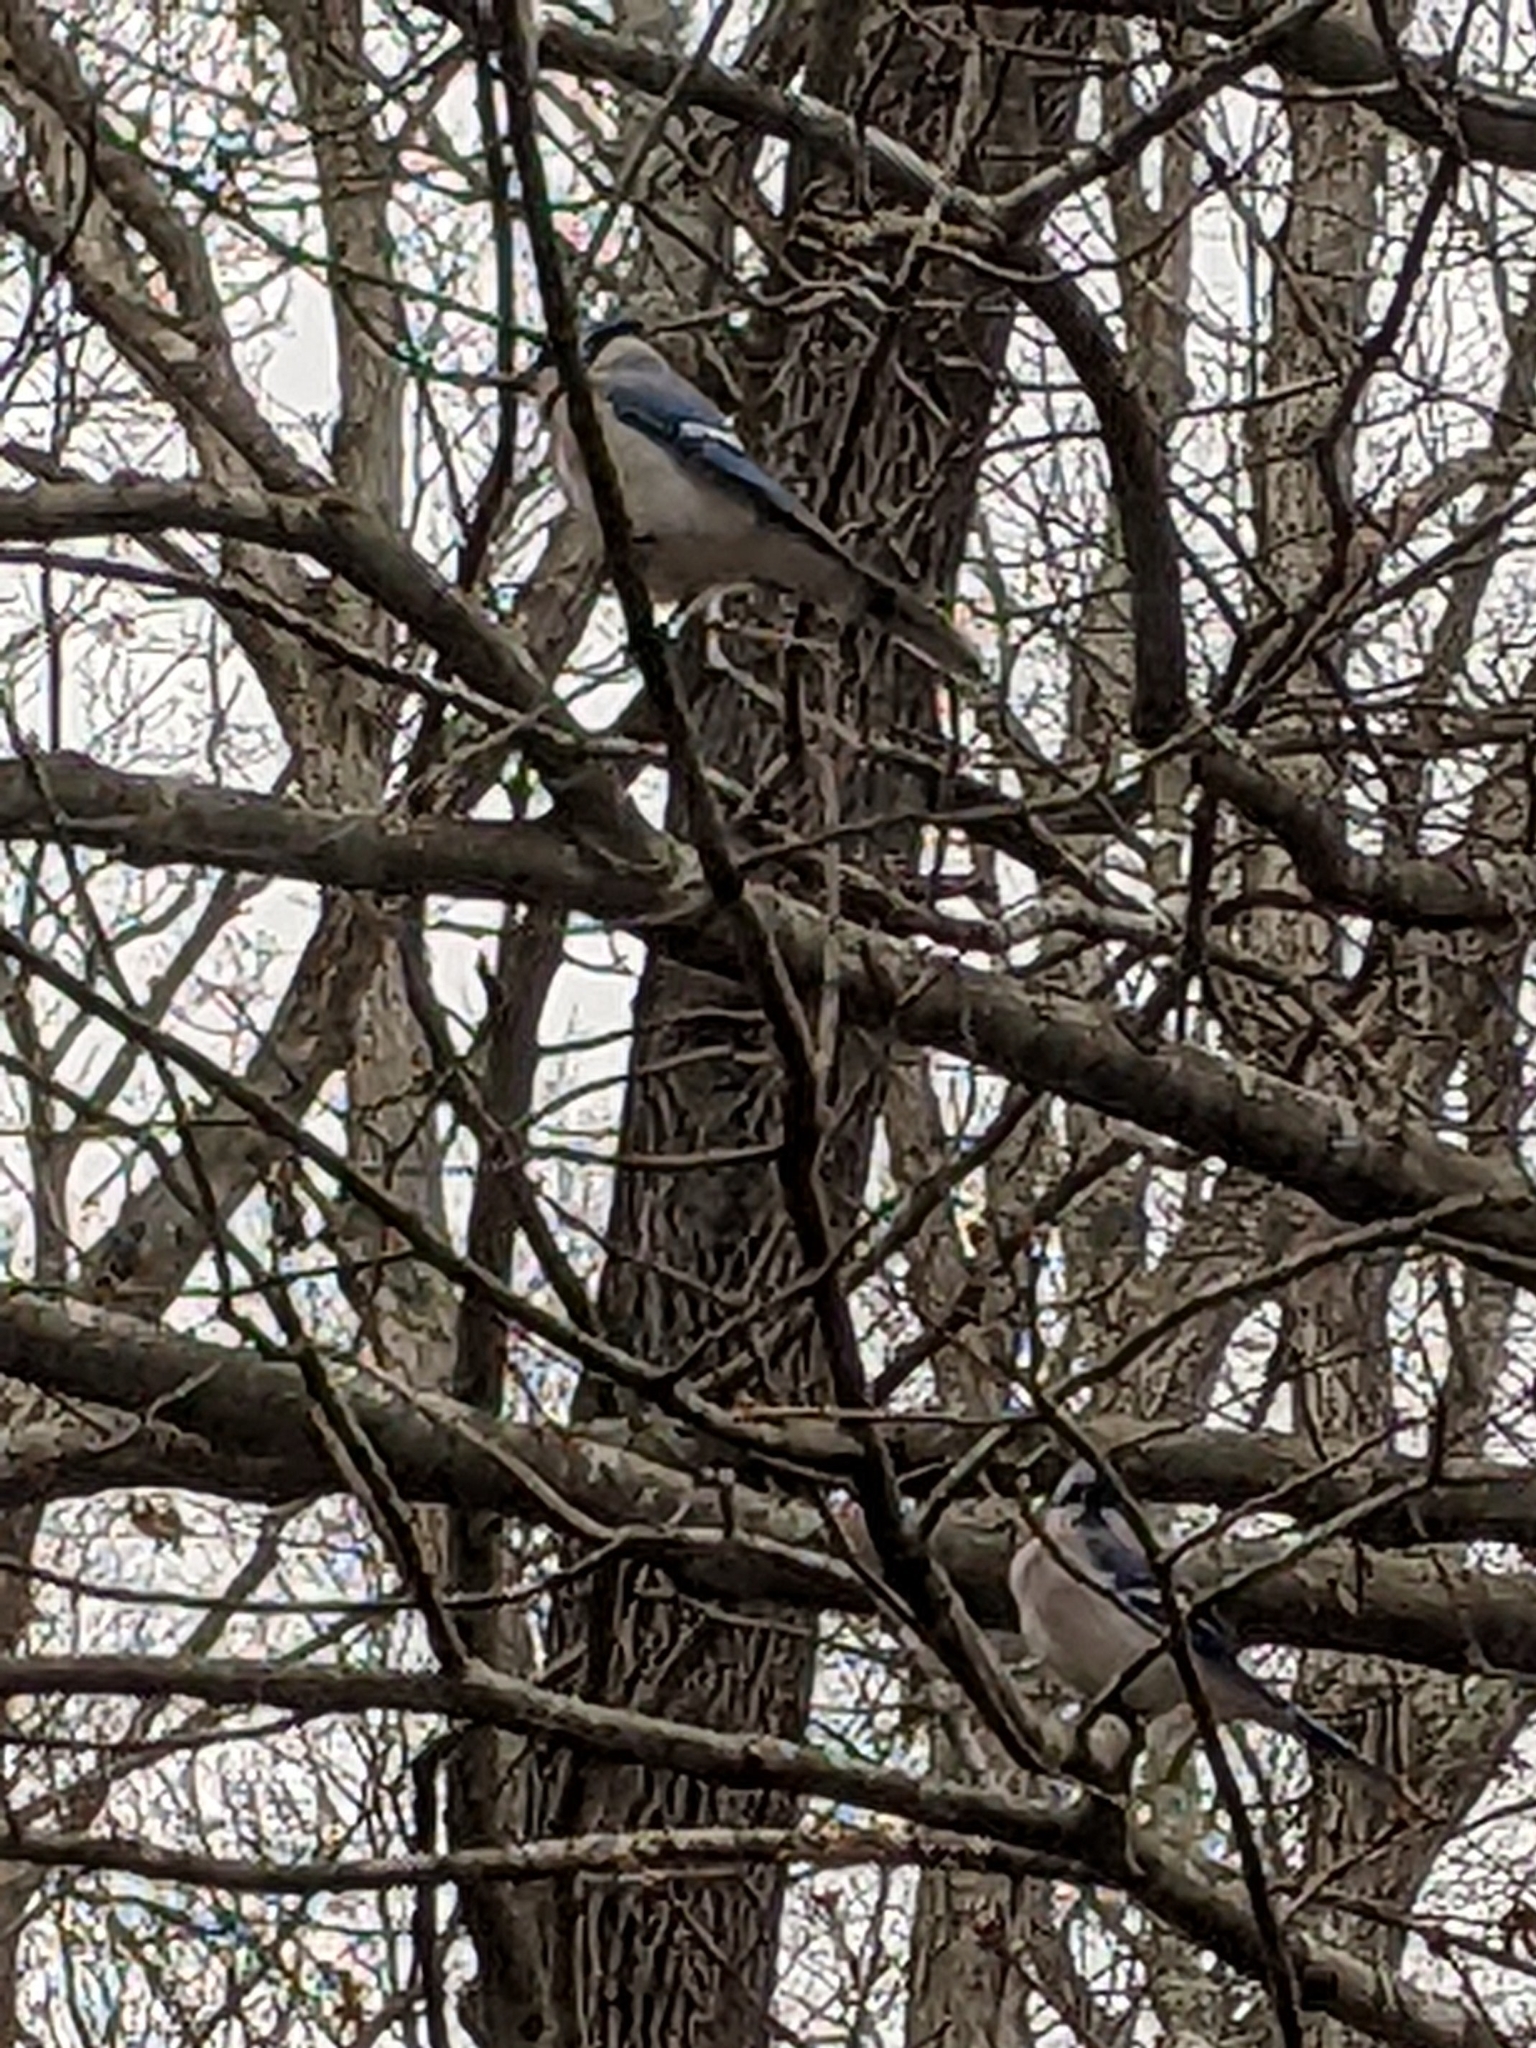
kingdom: Animalia
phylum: Chordata
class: Aves
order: Passeriformes
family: Corvidae
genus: Cyanocitta
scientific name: Cyanocitta cristata
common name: Blue jay
